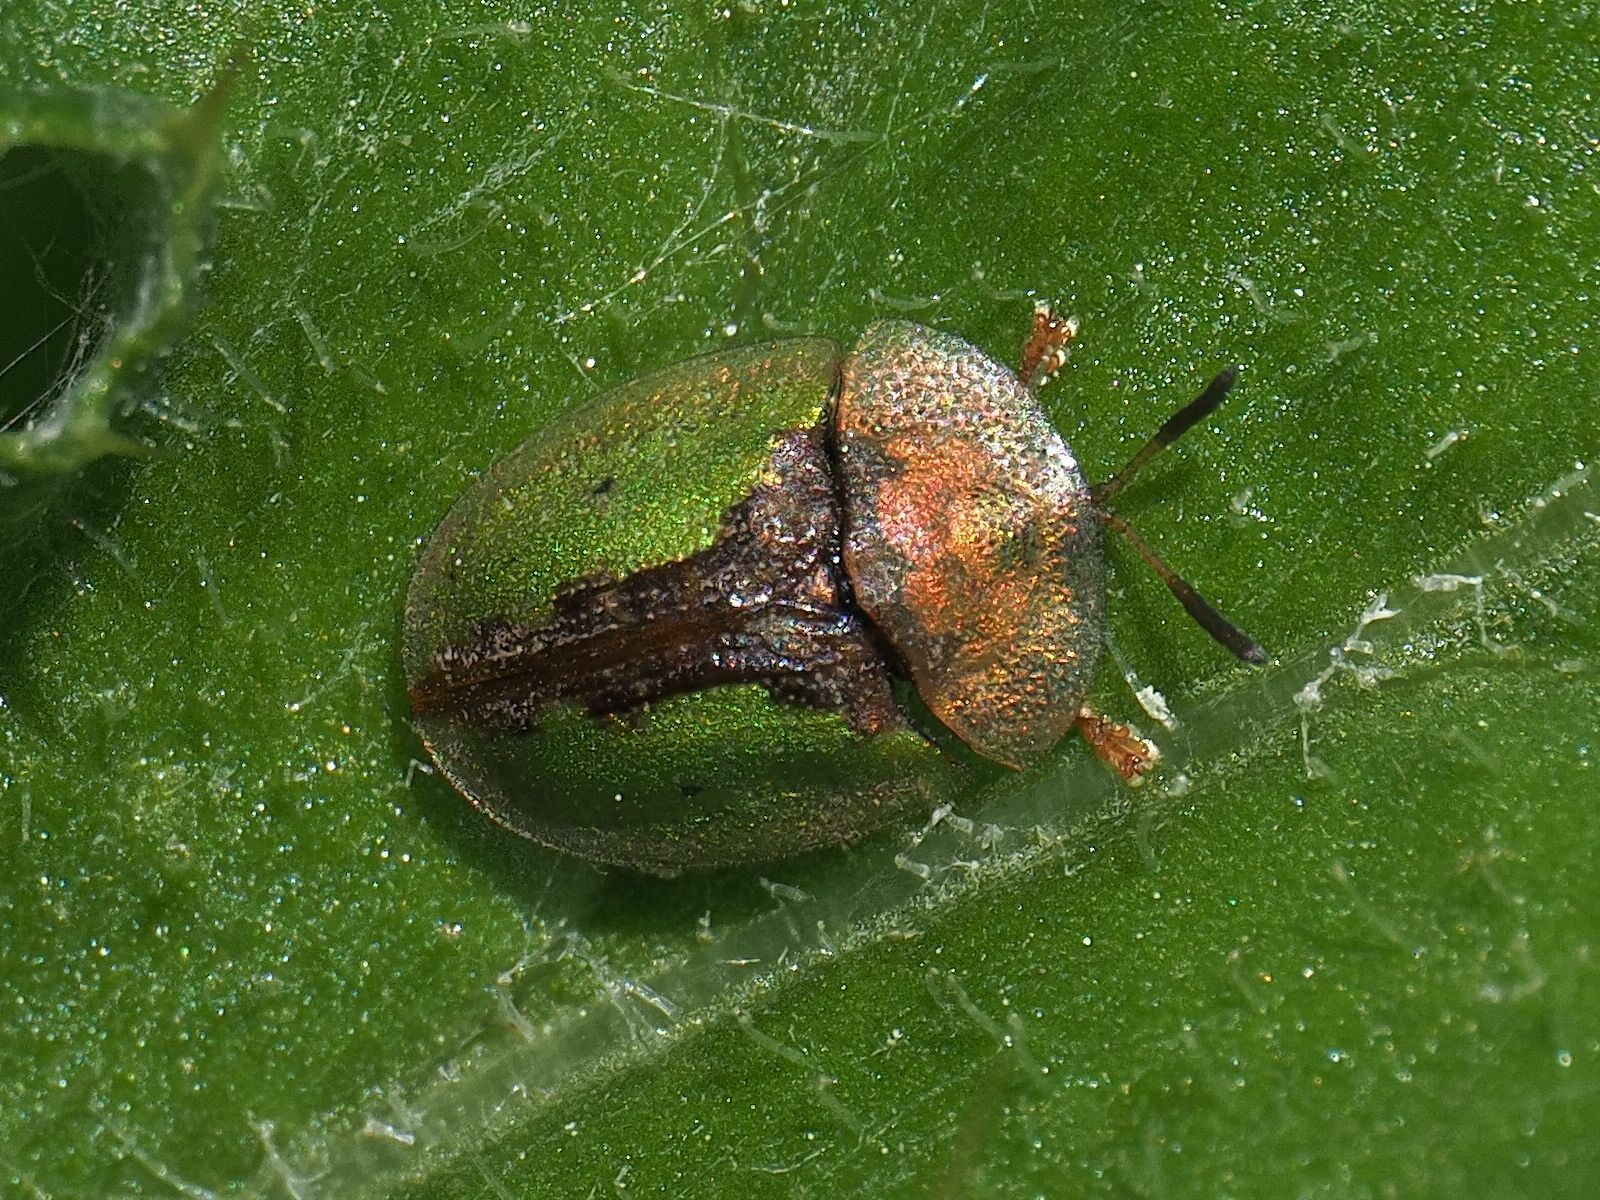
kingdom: Animalia
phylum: Arthropoda
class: Insecta
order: Coleoptera
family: Chrysomelidae
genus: Cassida
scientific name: Cassida vibex
